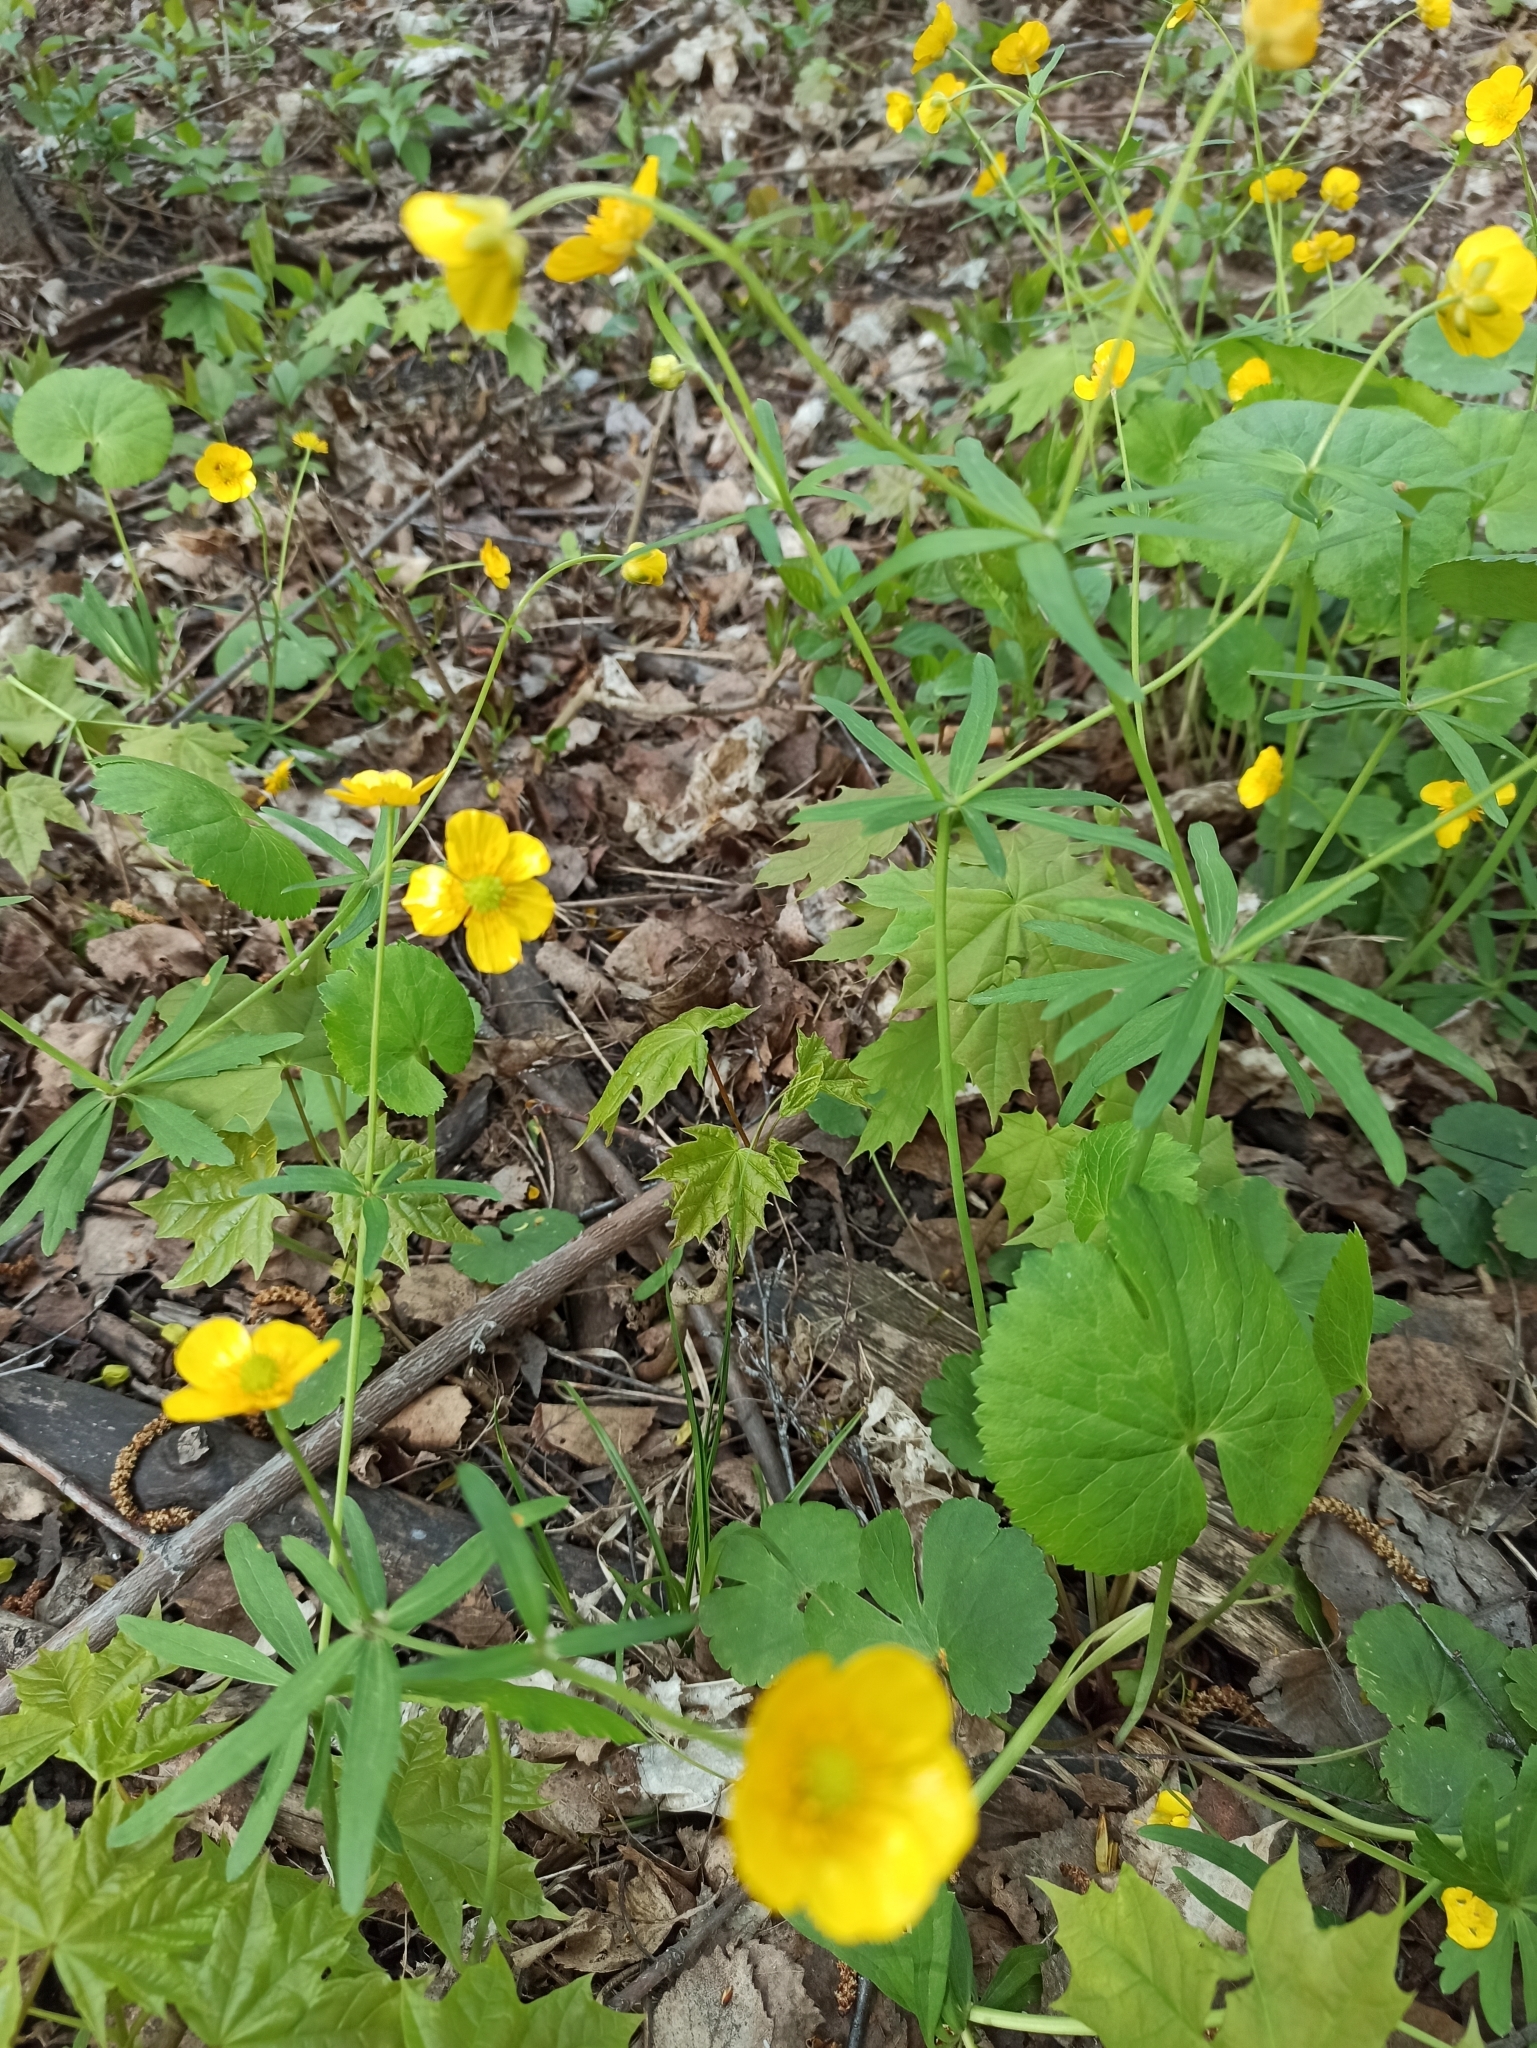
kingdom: Plantae
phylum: Tracheophyta
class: Magnoliopsida
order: Ranunculales
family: Ranunculaceae
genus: Ranunculus
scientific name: Ranunculus cassubicus
